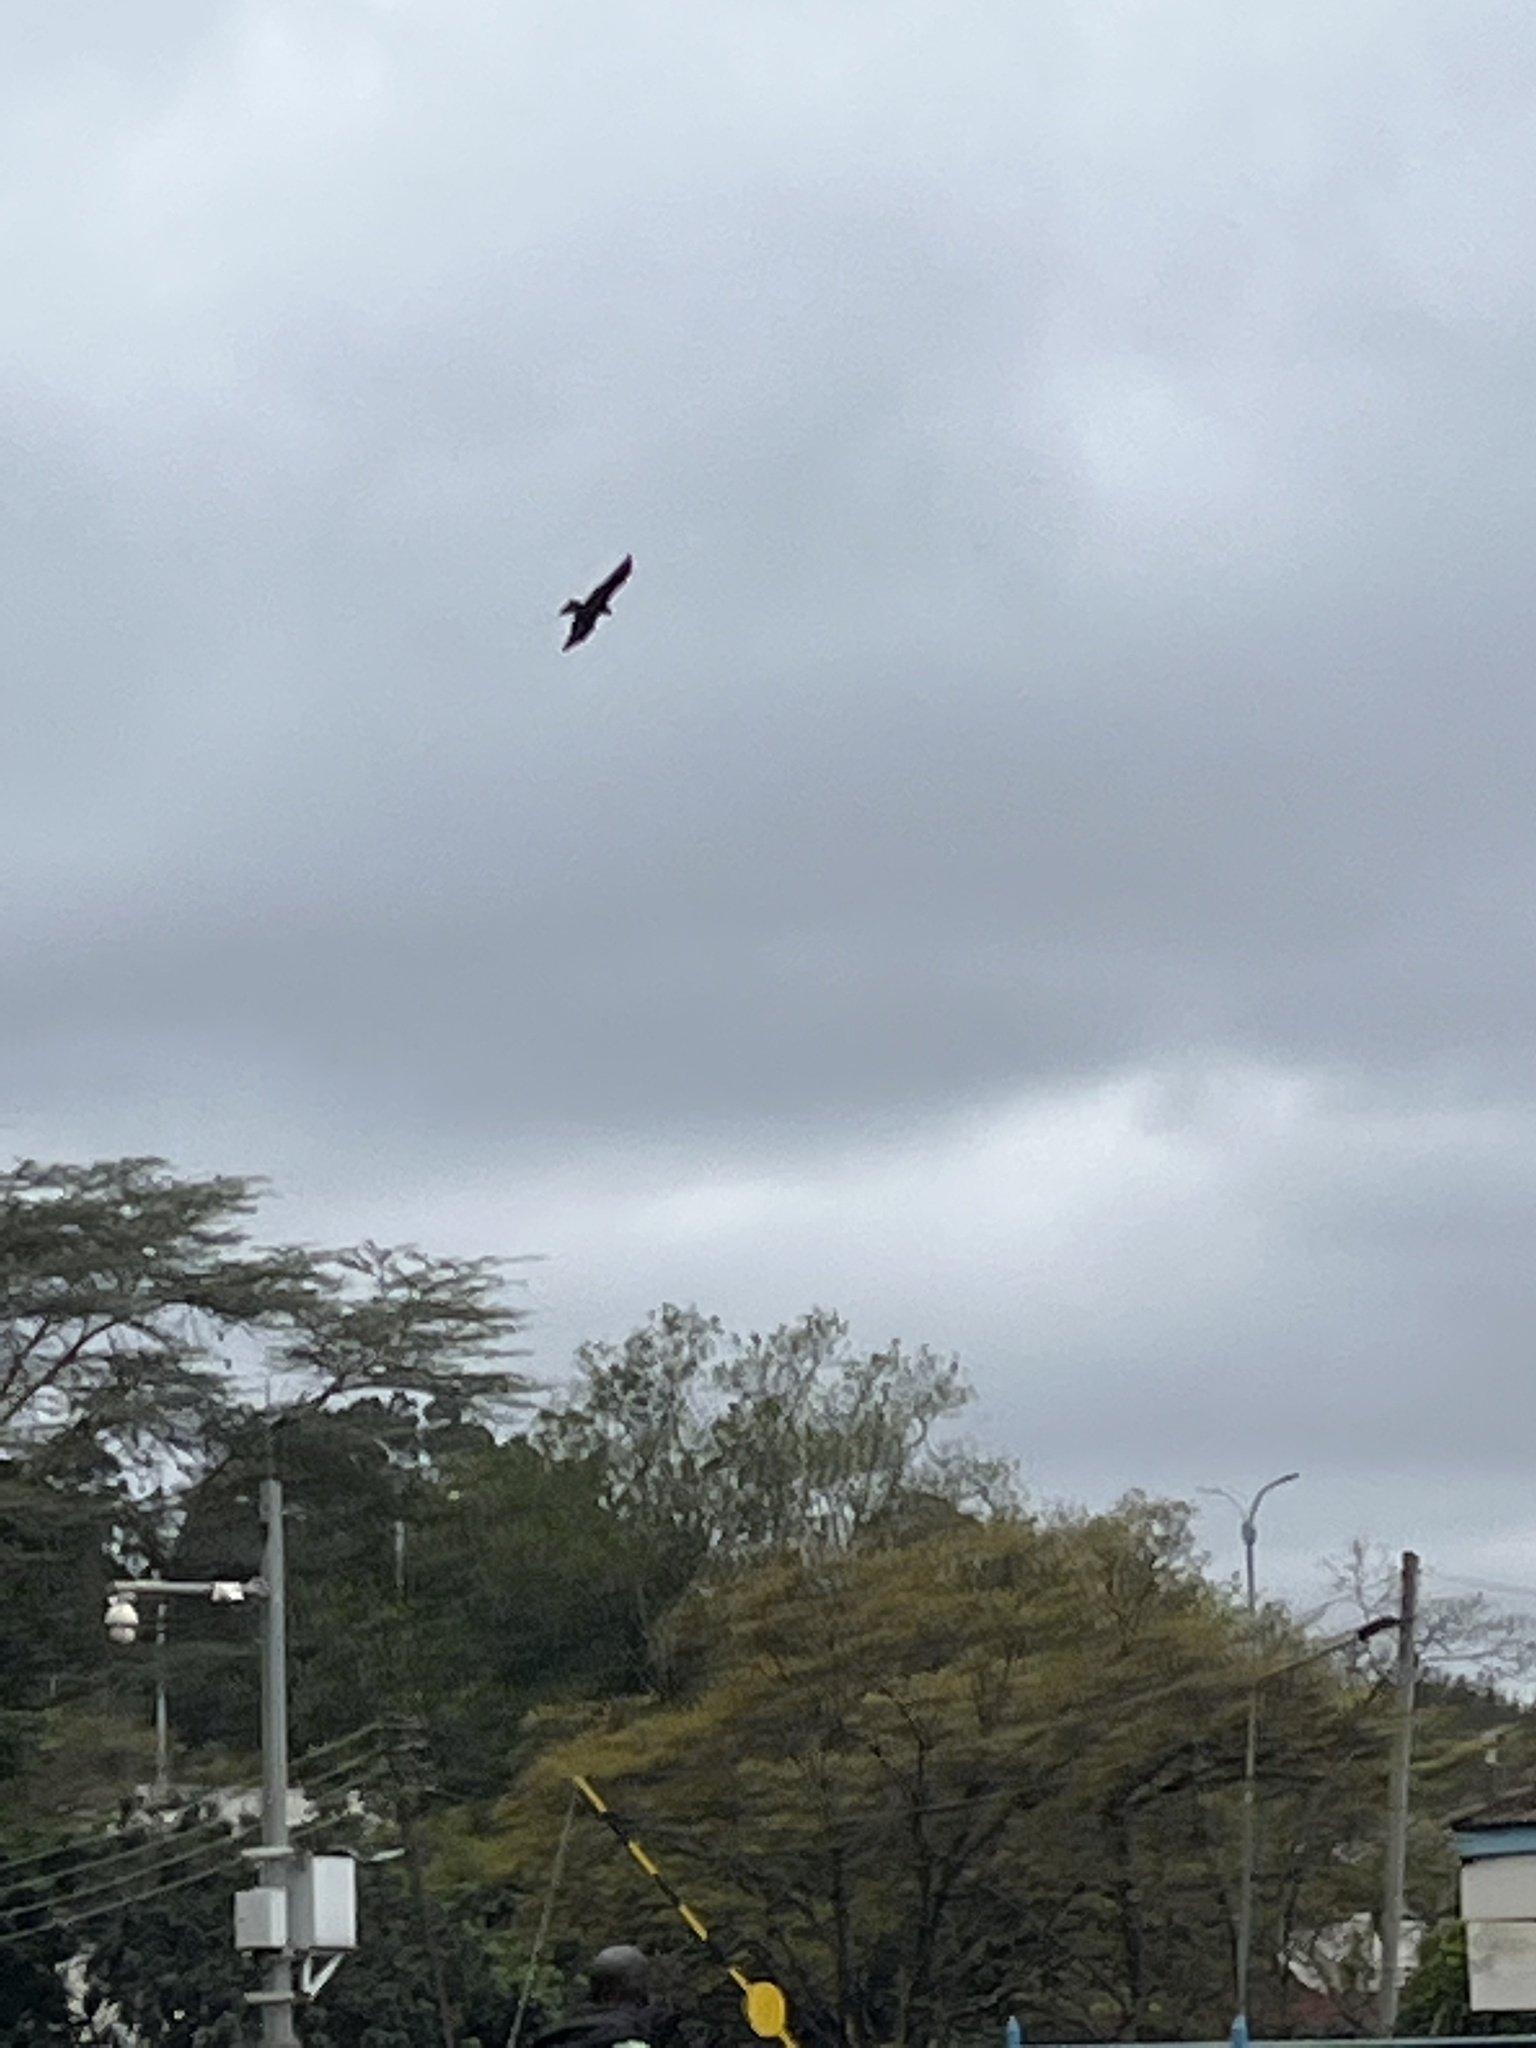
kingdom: Animalia
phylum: Chordata
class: Aves
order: Accipitriformes
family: Accipitridae
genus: Milvus
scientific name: Milvus migrans
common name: Black kite
